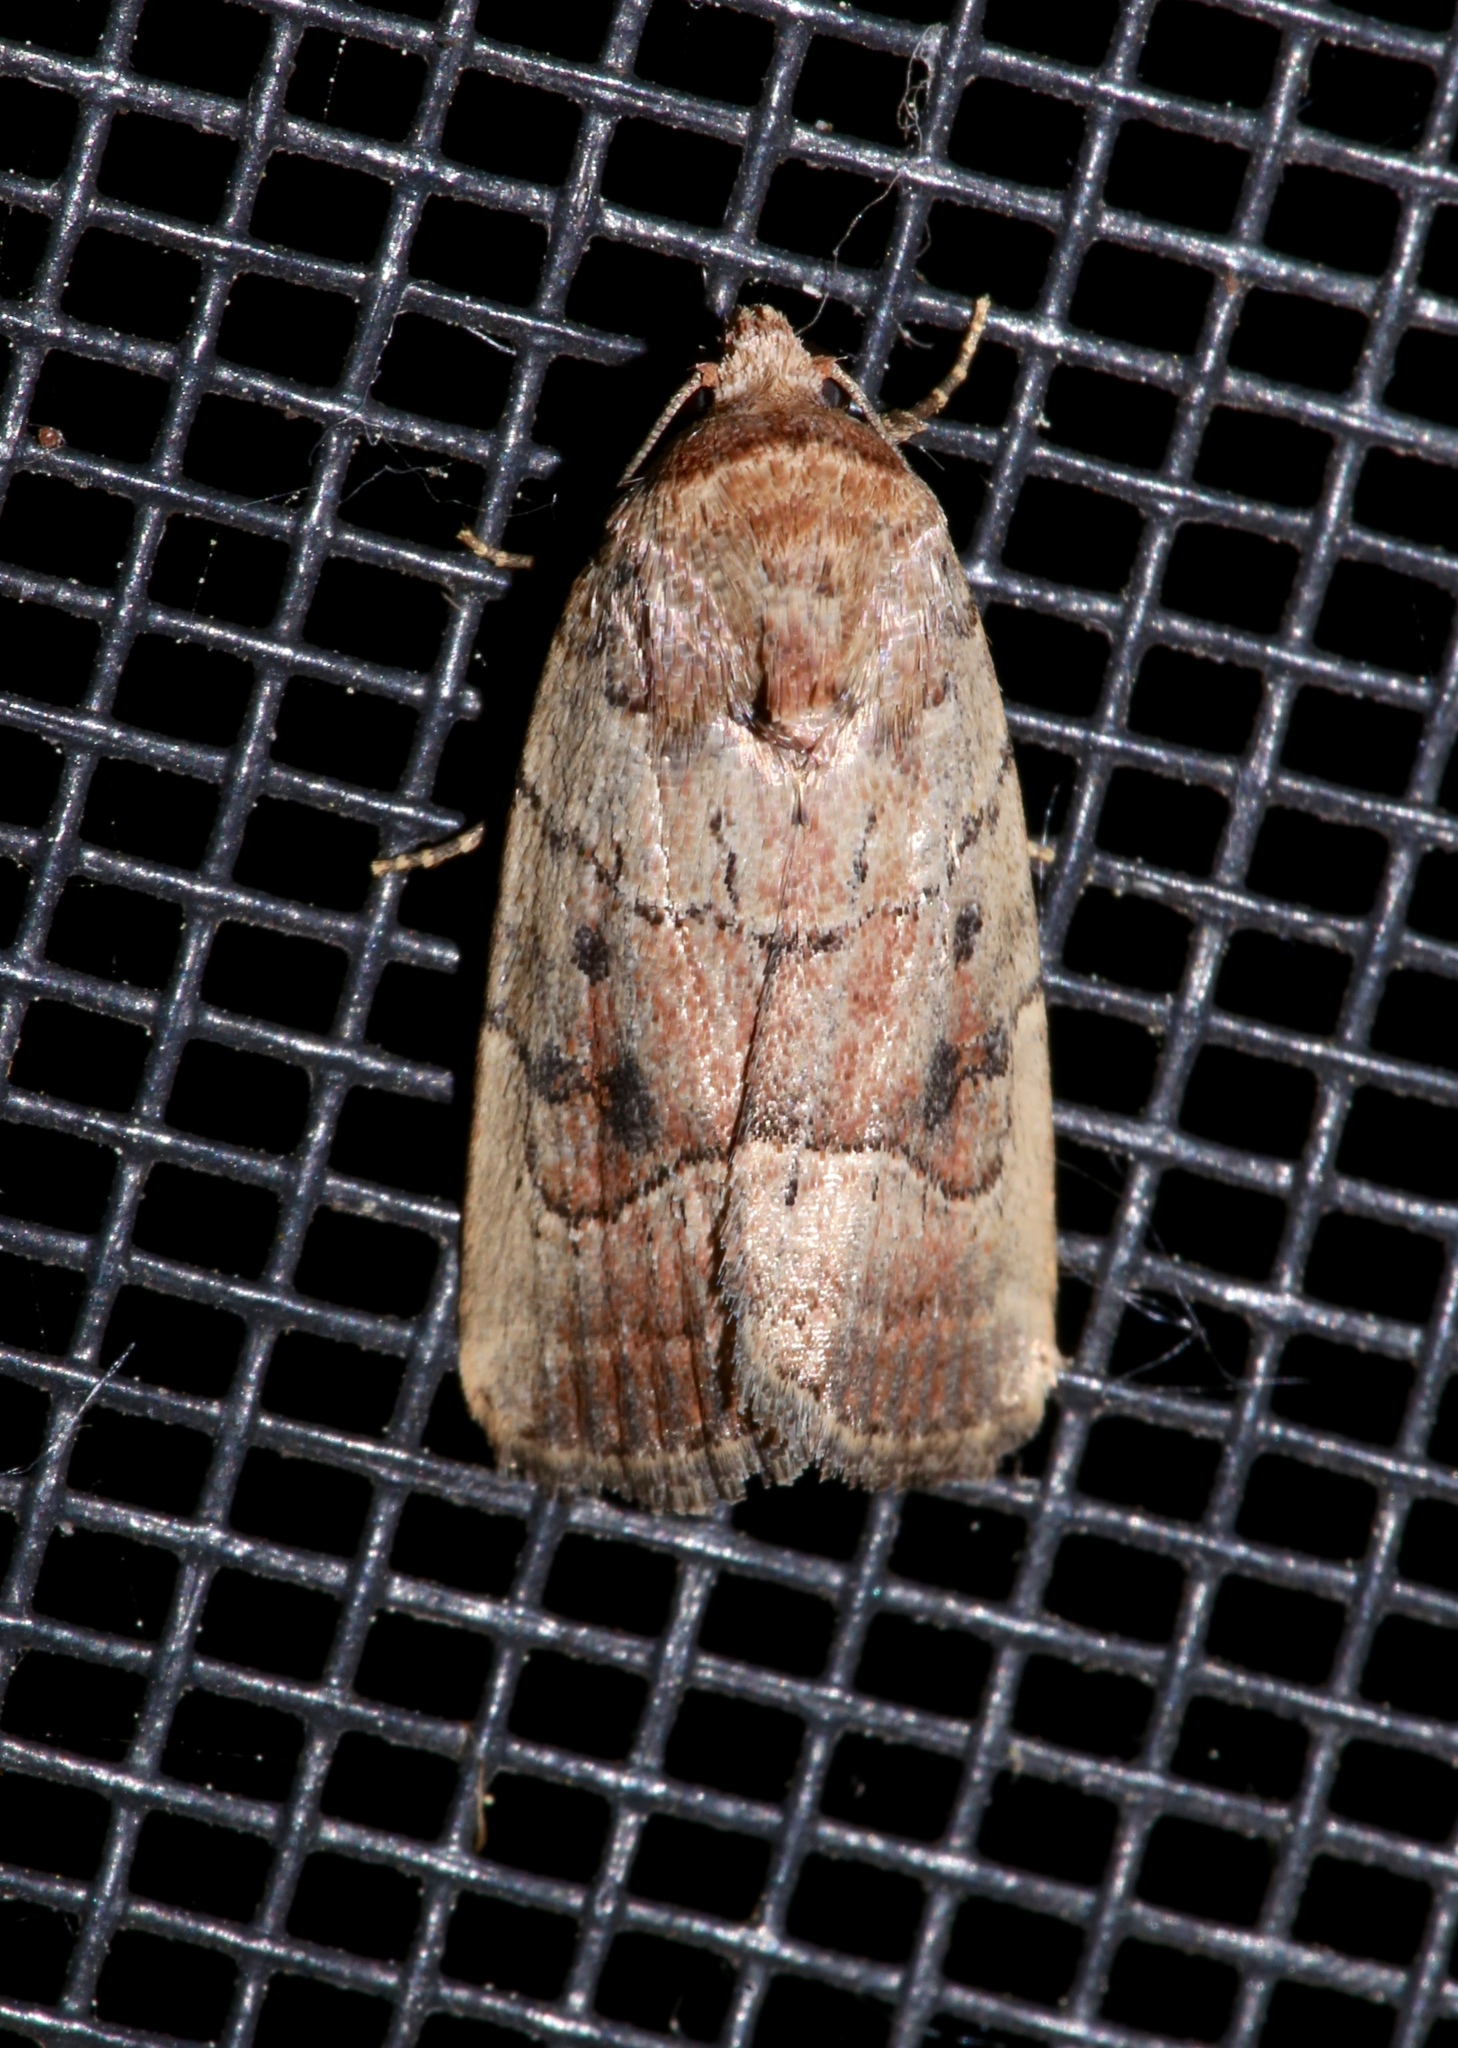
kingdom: Animalia
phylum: Arthropoda
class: Insecta
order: Lepidoptera
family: Noctuidae
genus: Elaphria
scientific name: Elaphria fuscimacula
